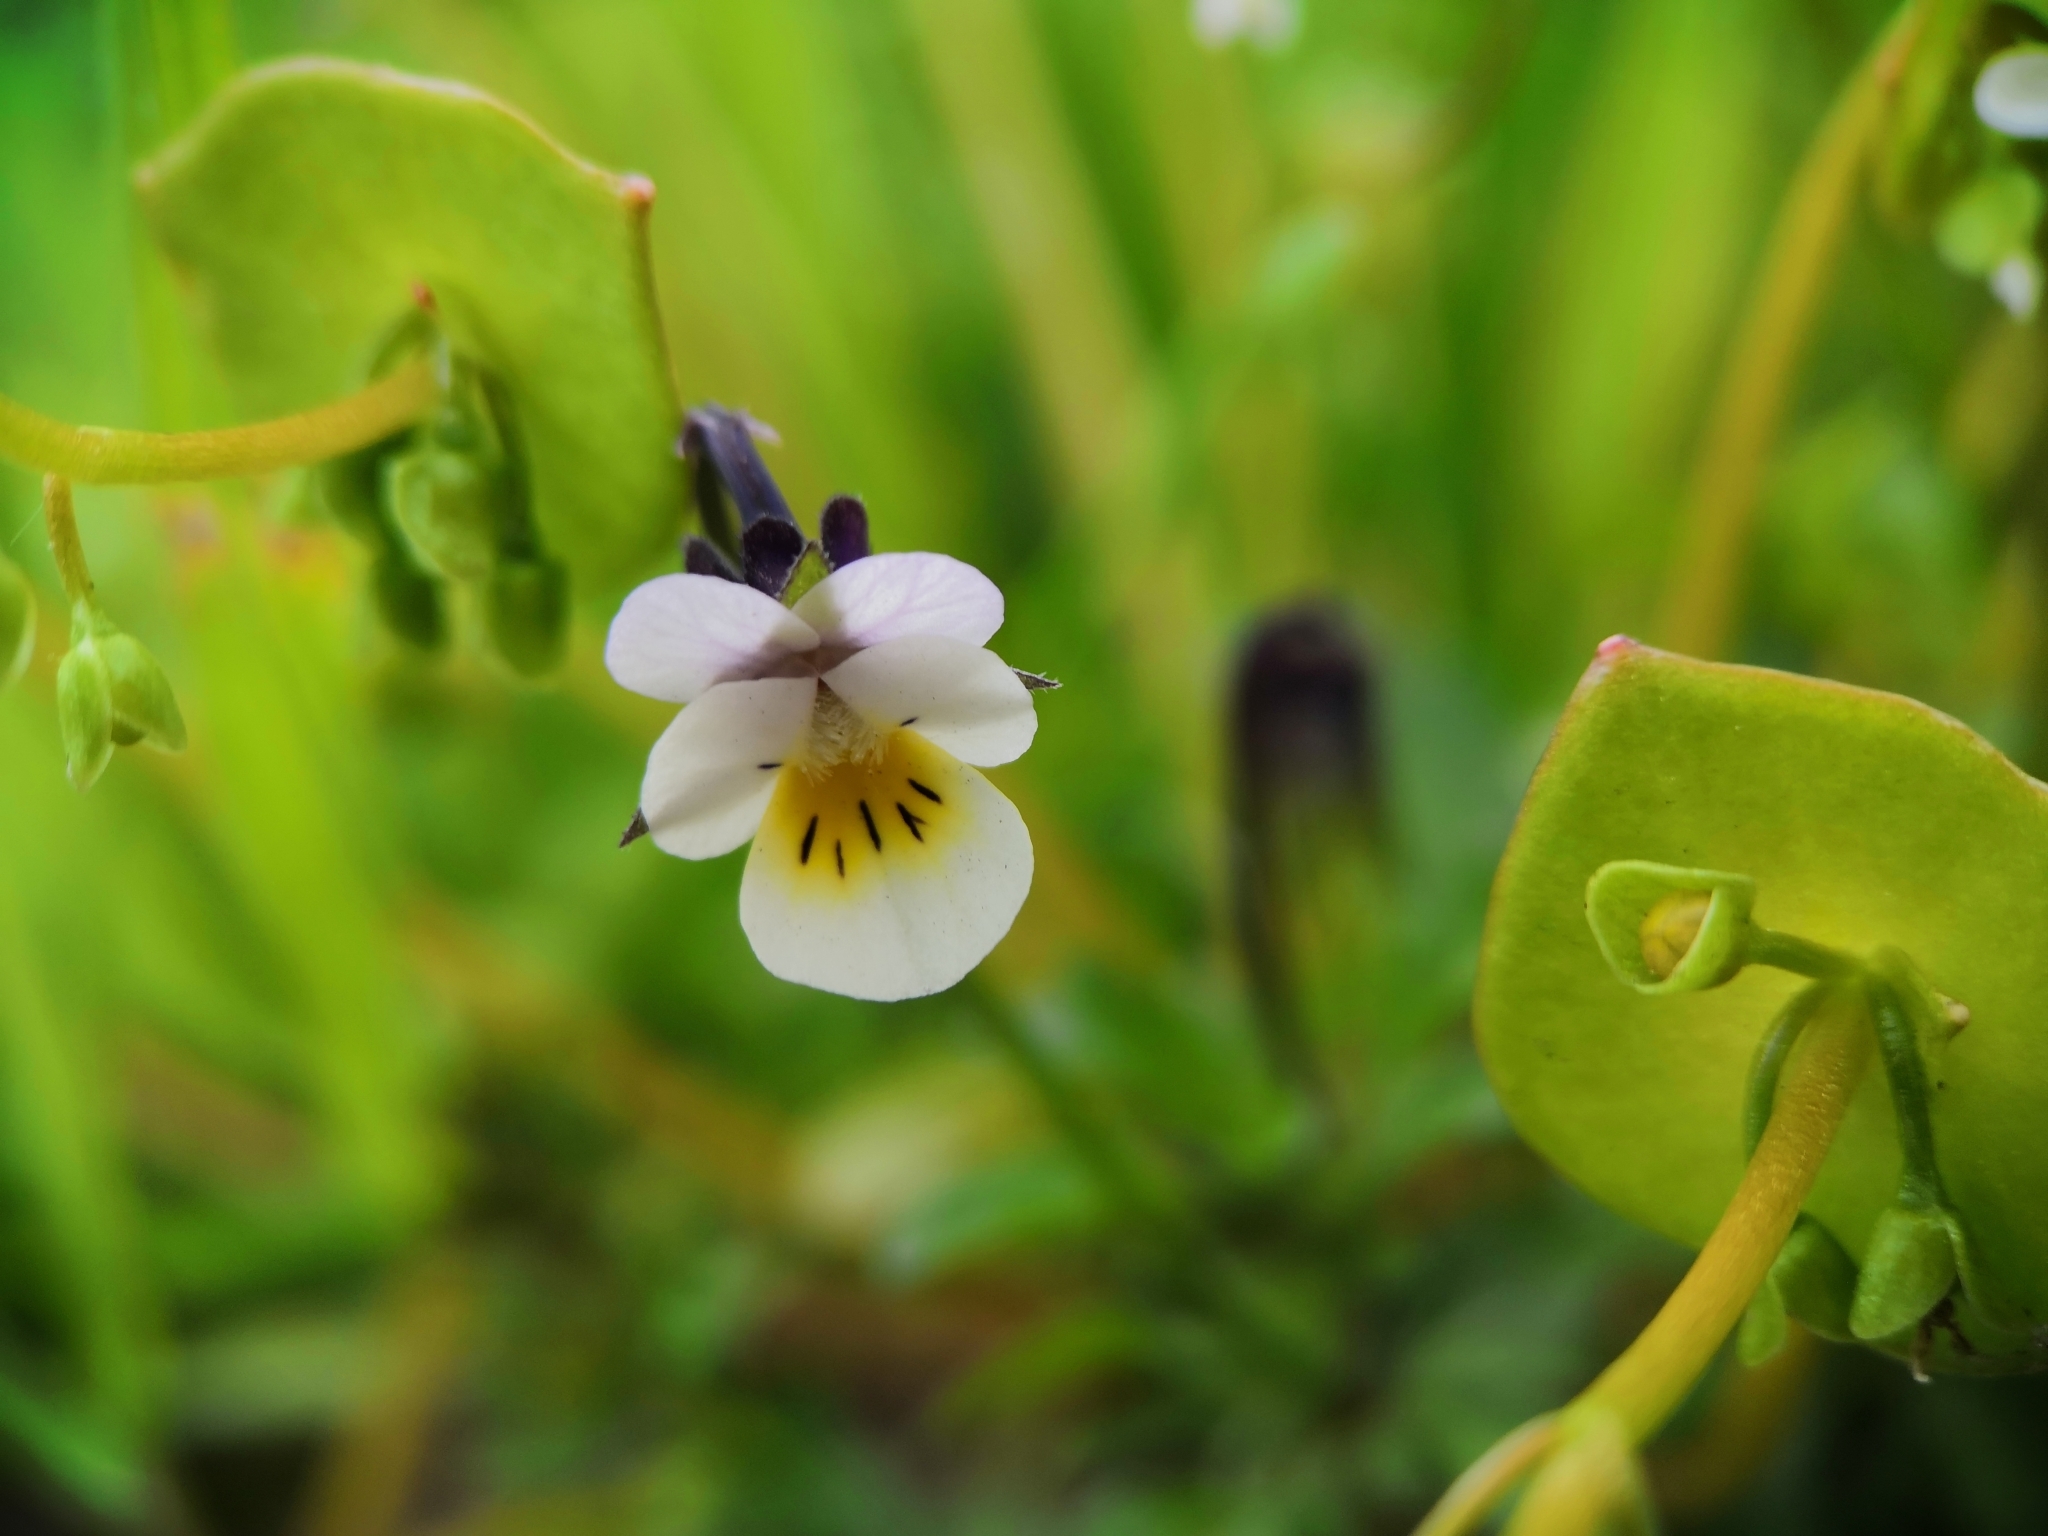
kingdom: Plantae
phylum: Tracheophyta
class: Magnoliopsida
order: Malpighiales
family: Violaceae
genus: Viola
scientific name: Viola arvensis
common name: Field pansy
